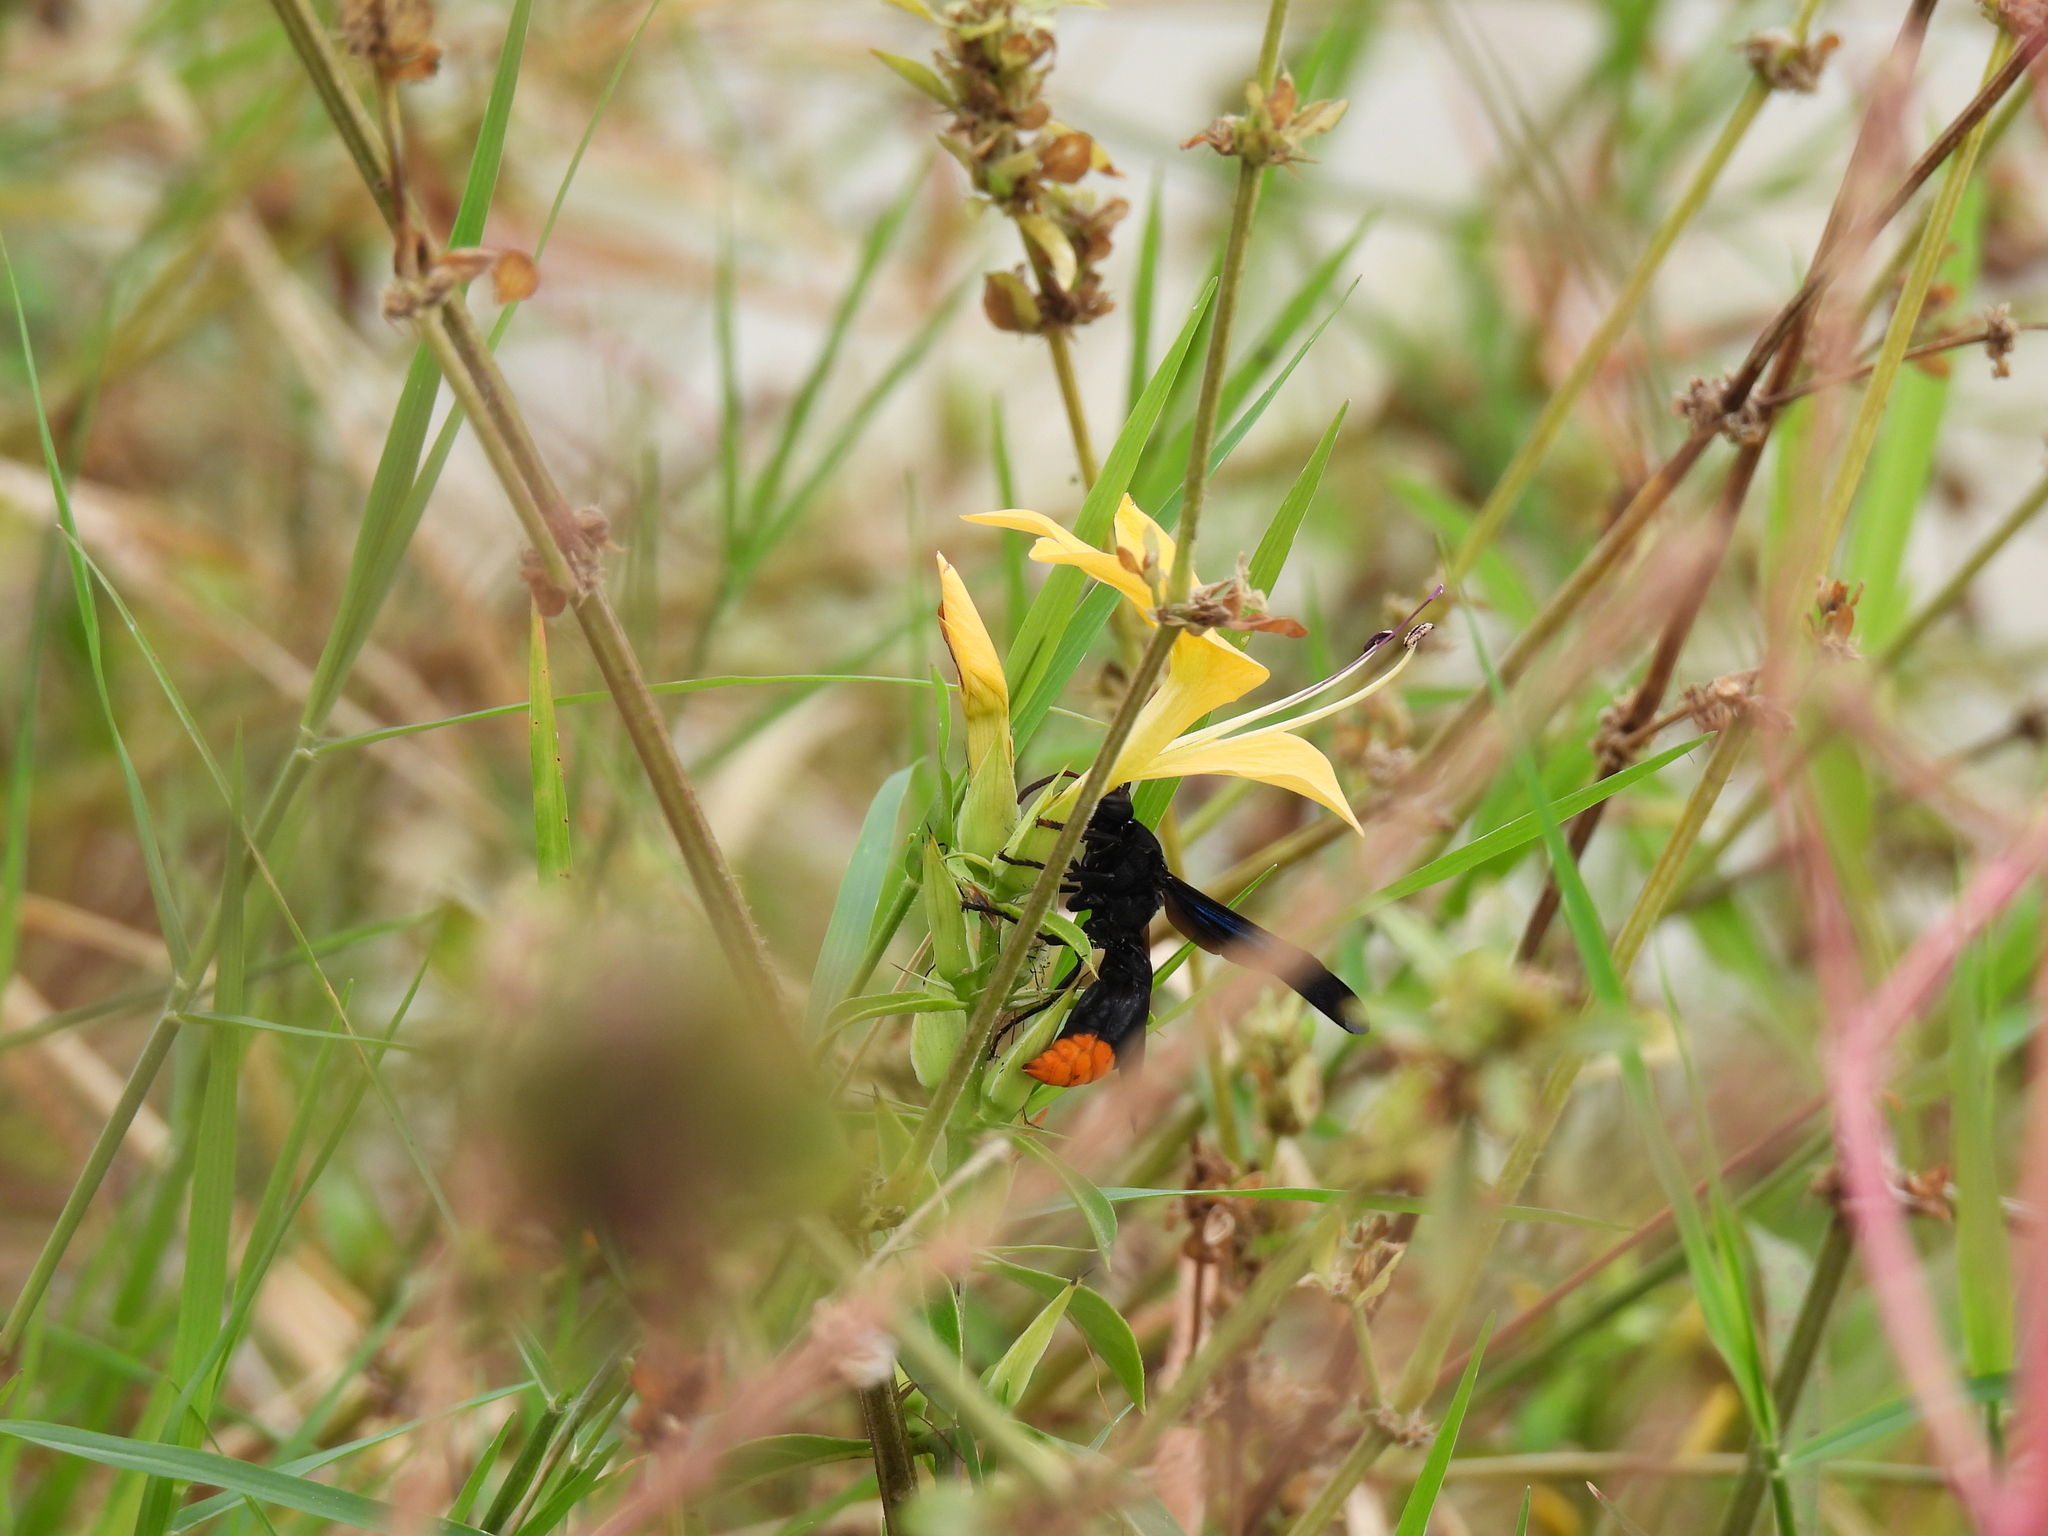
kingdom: Animalia
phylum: Arthropoda
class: Insecta
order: Hymenoptera
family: Vespidae
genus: Synagris
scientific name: Synagris
